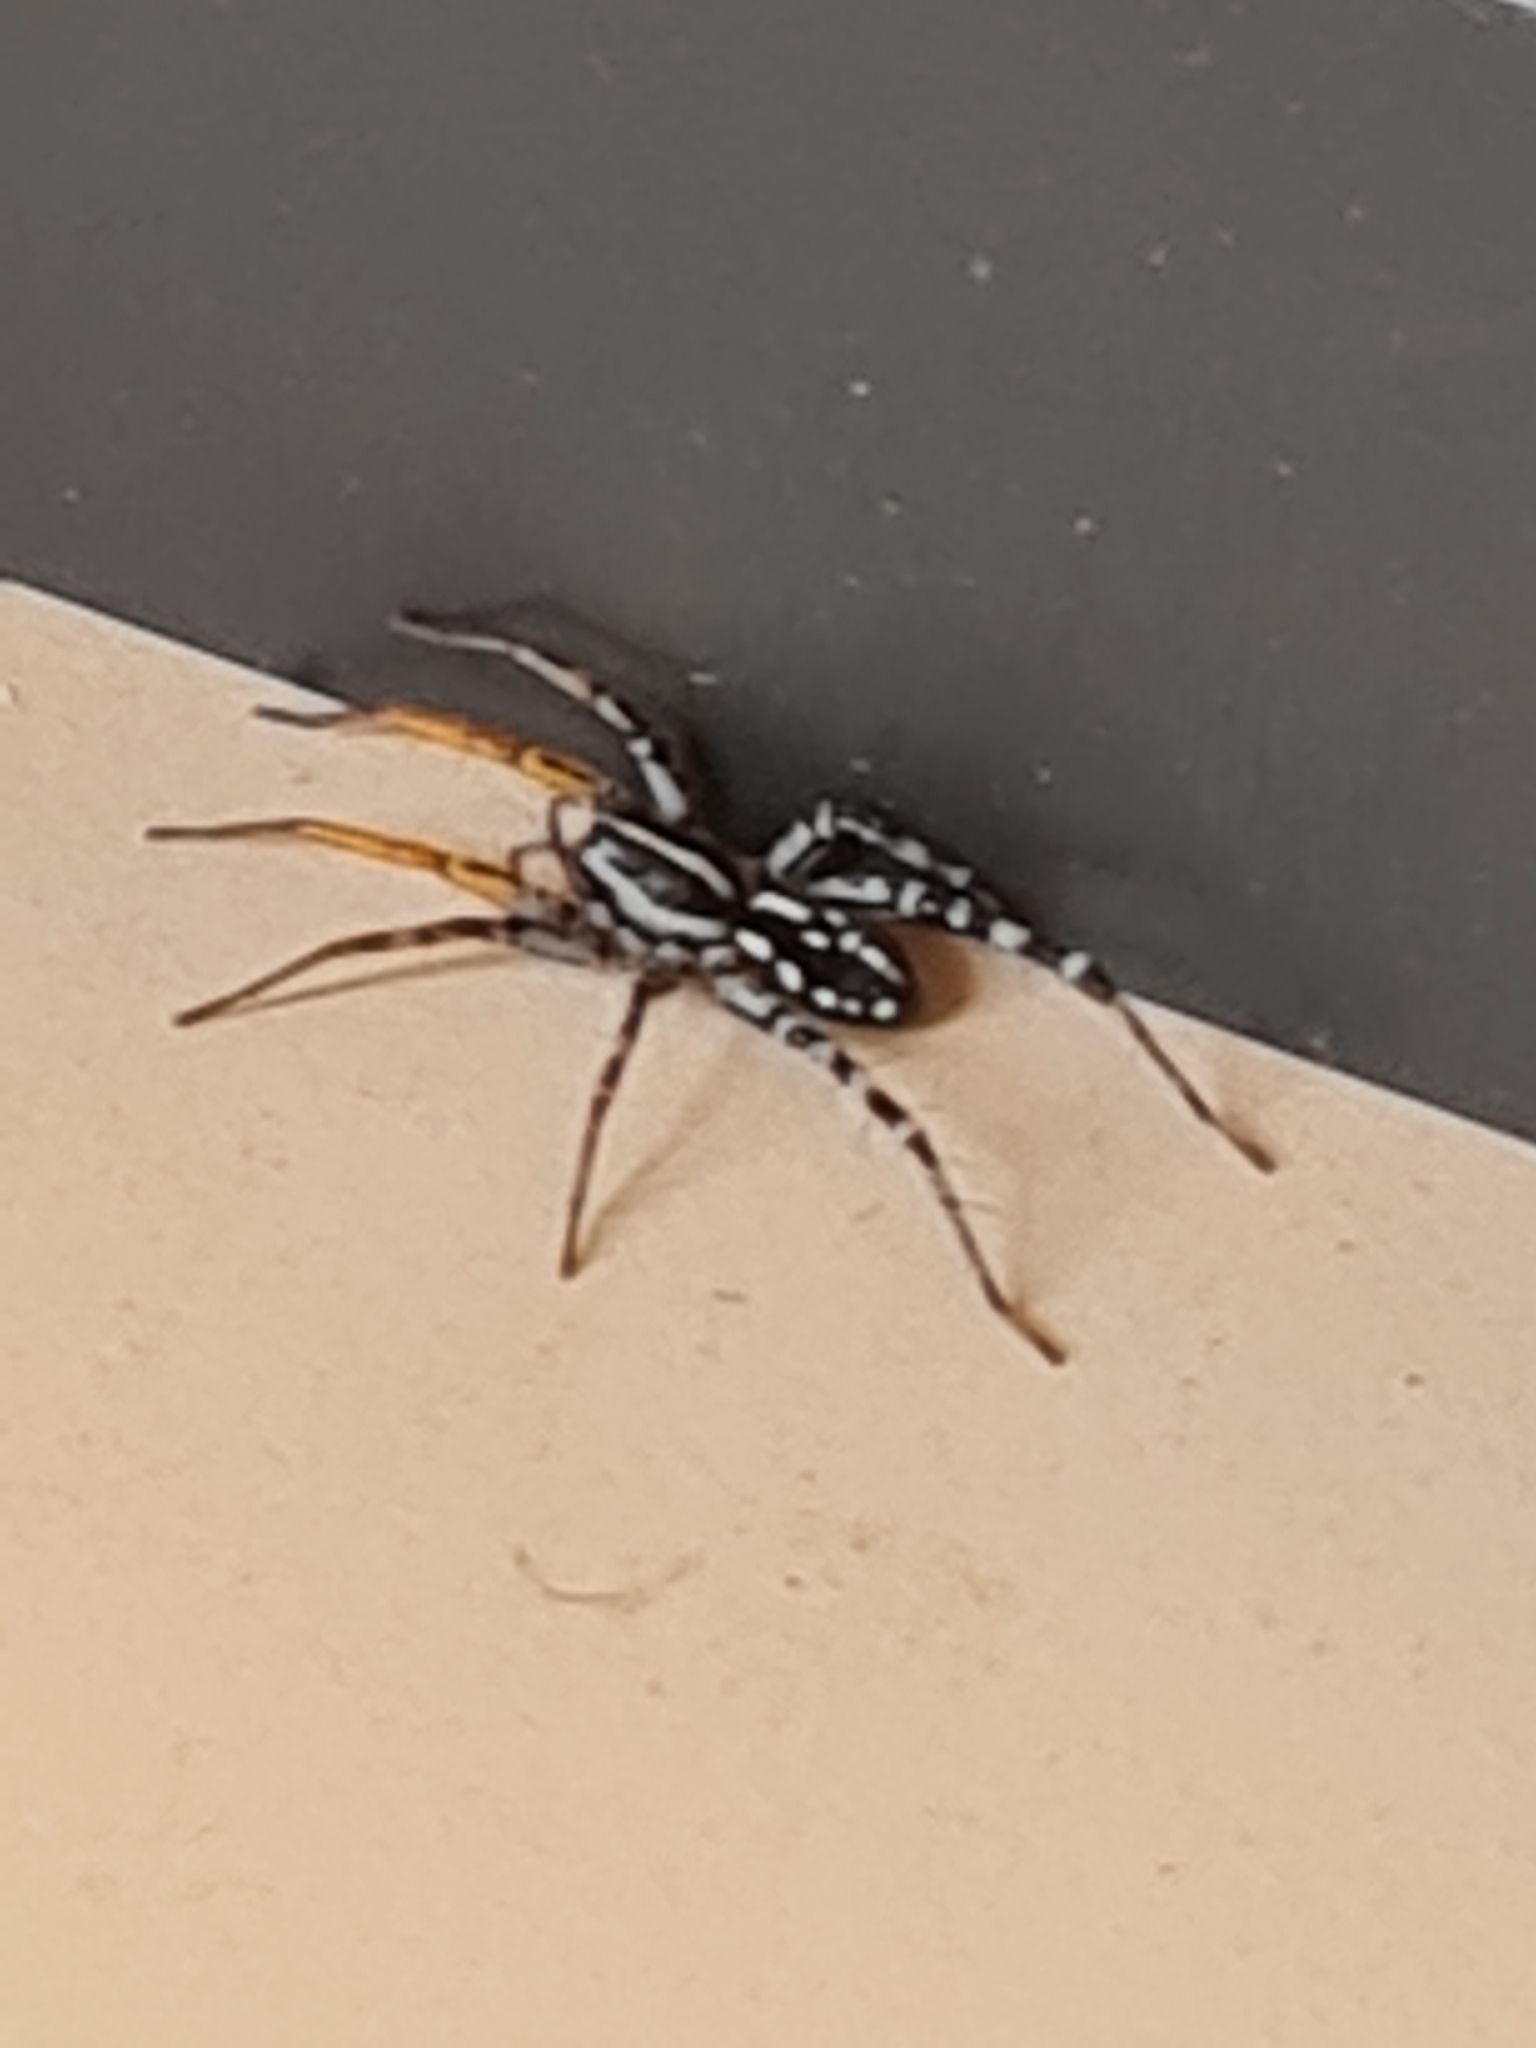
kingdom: Animalia
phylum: Arthropoda
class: Arachnida
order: Araneae
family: Corinnidae
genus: Nyssus
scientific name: Nyssus coloripes
